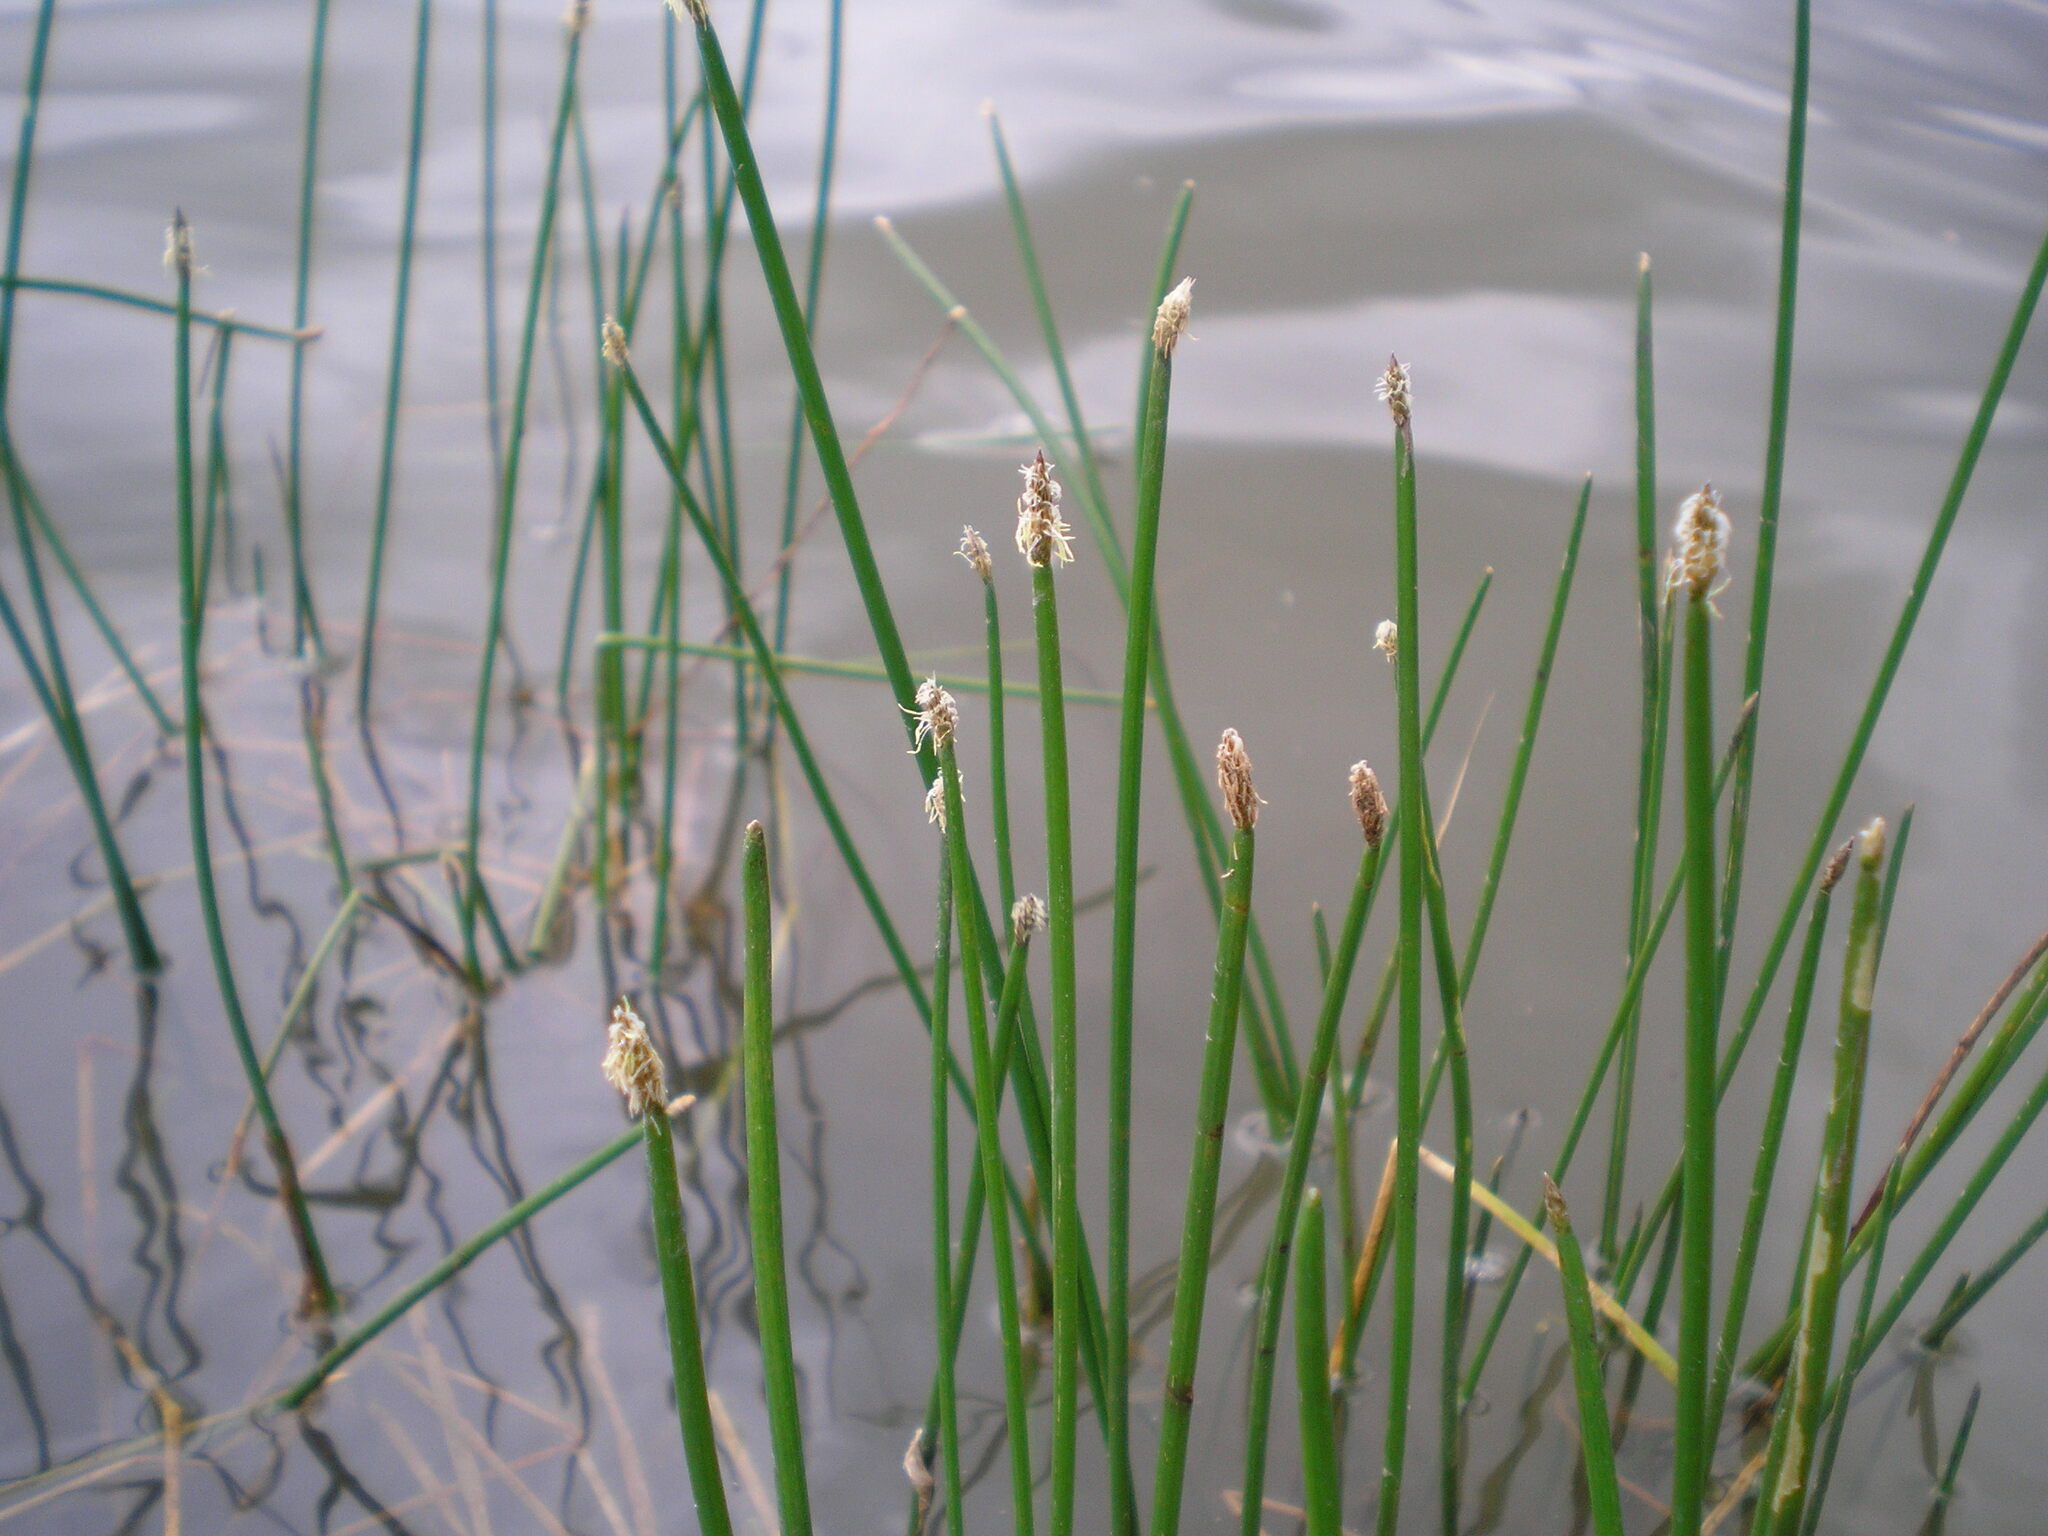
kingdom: Plantae
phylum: Tracheophyta
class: Liliopsida
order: Poales
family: Cyperaceae
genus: Eleocharis
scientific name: Eleocharis palustris
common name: Common spike-rush
